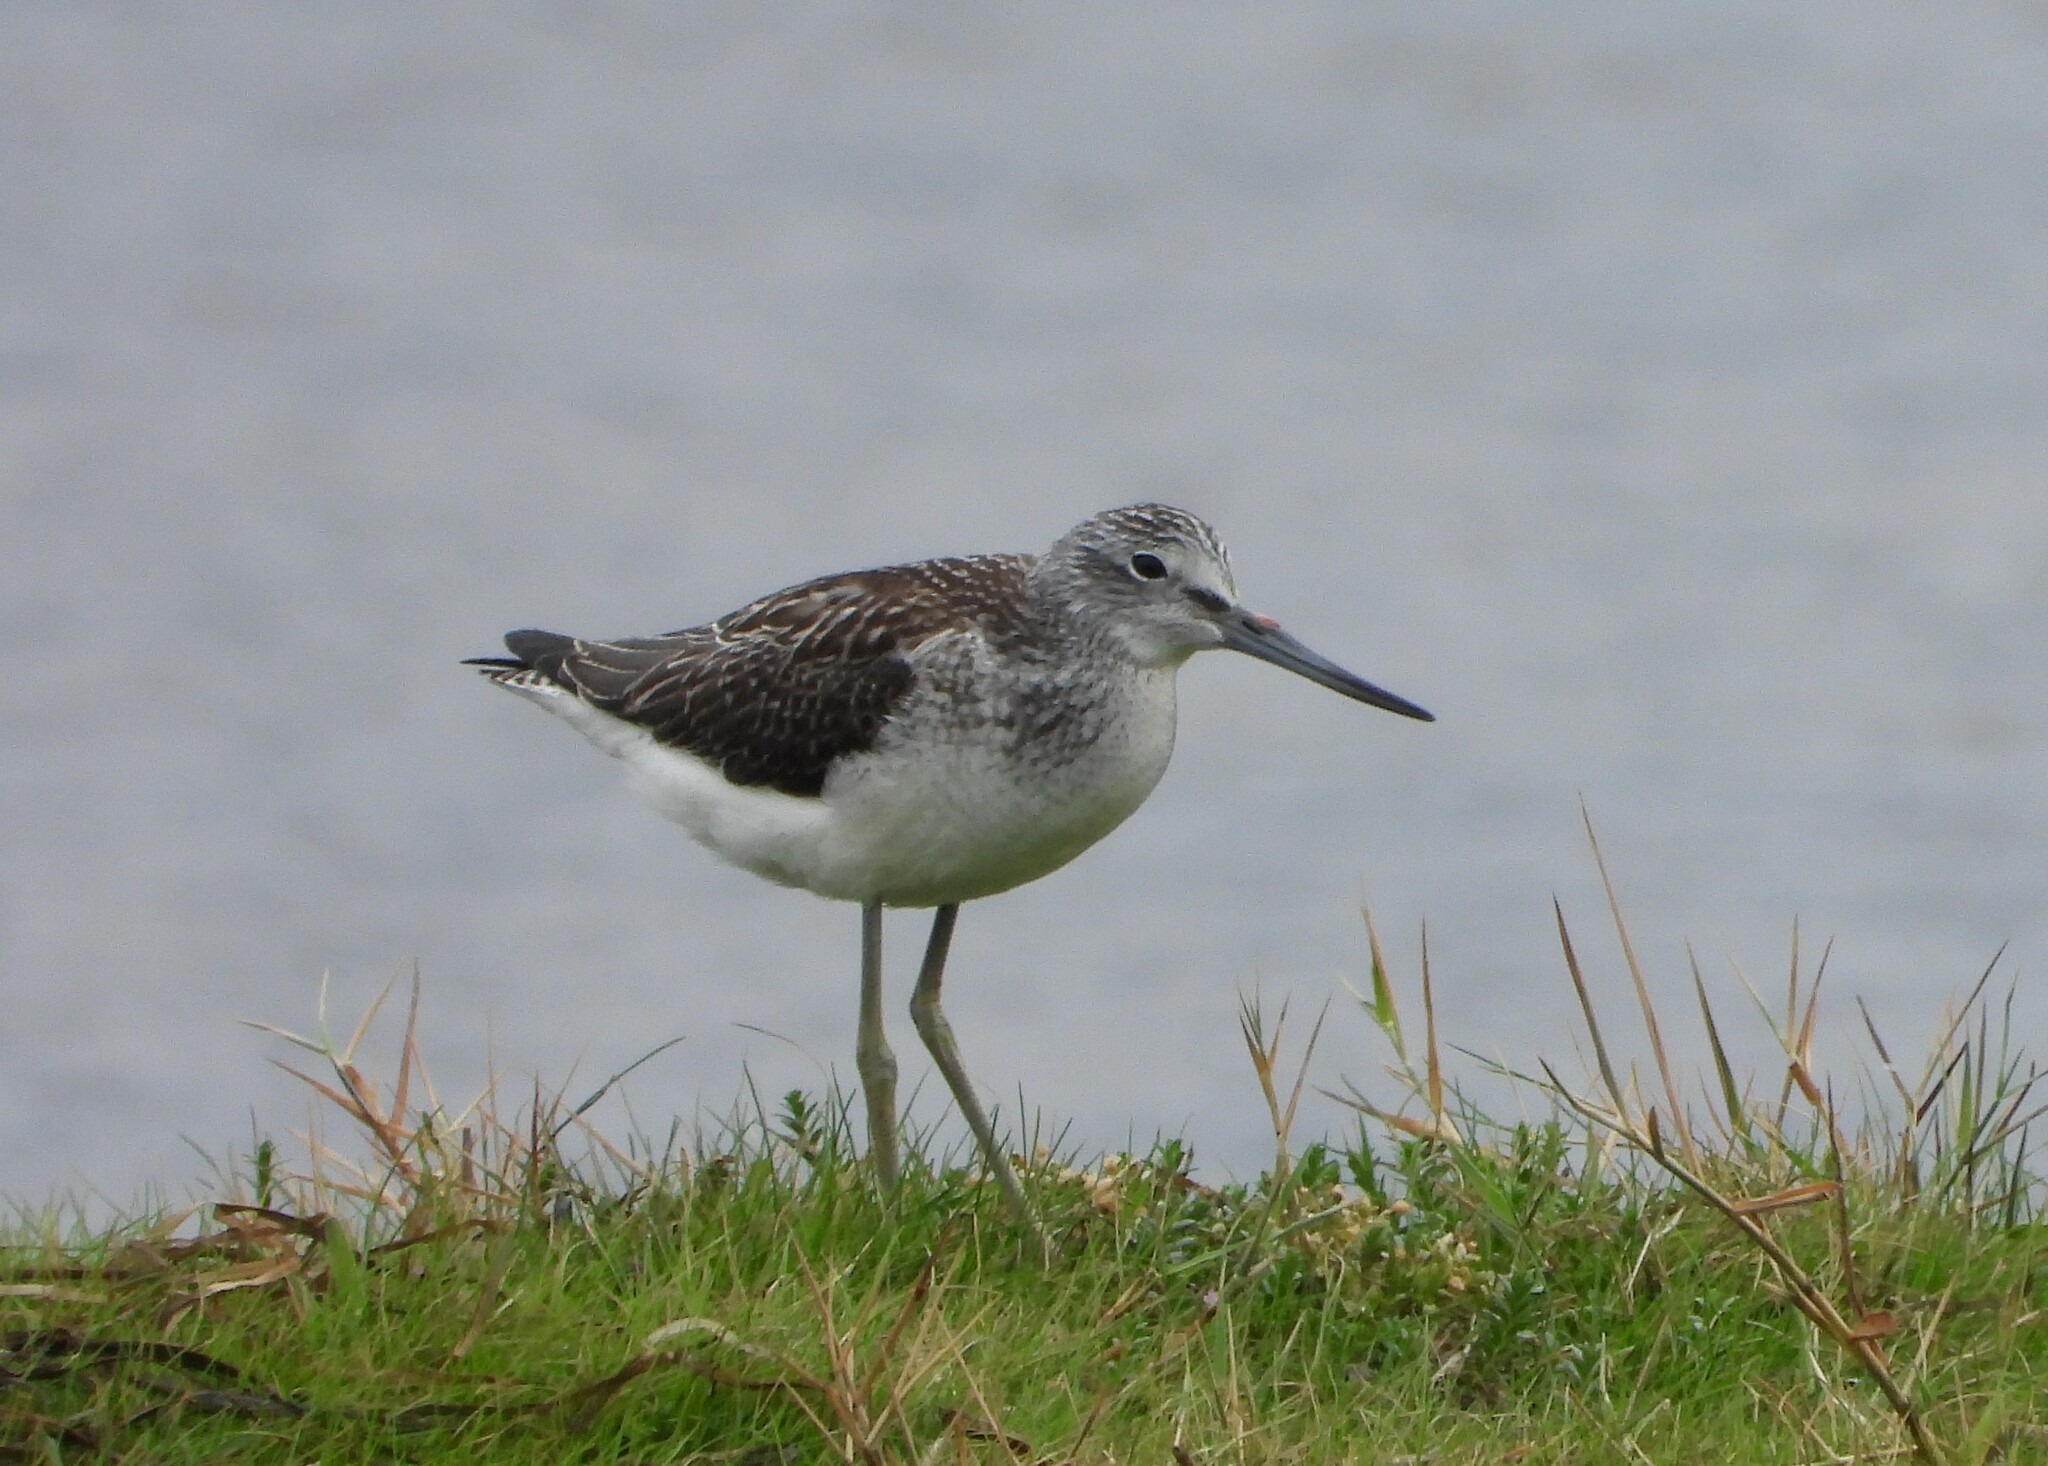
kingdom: Animalia
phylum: Chordata
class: Aves
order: Charadriiformes
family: Scolopacidae
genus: Tringa
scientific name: Tringa nebularia
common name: Common greenshank
